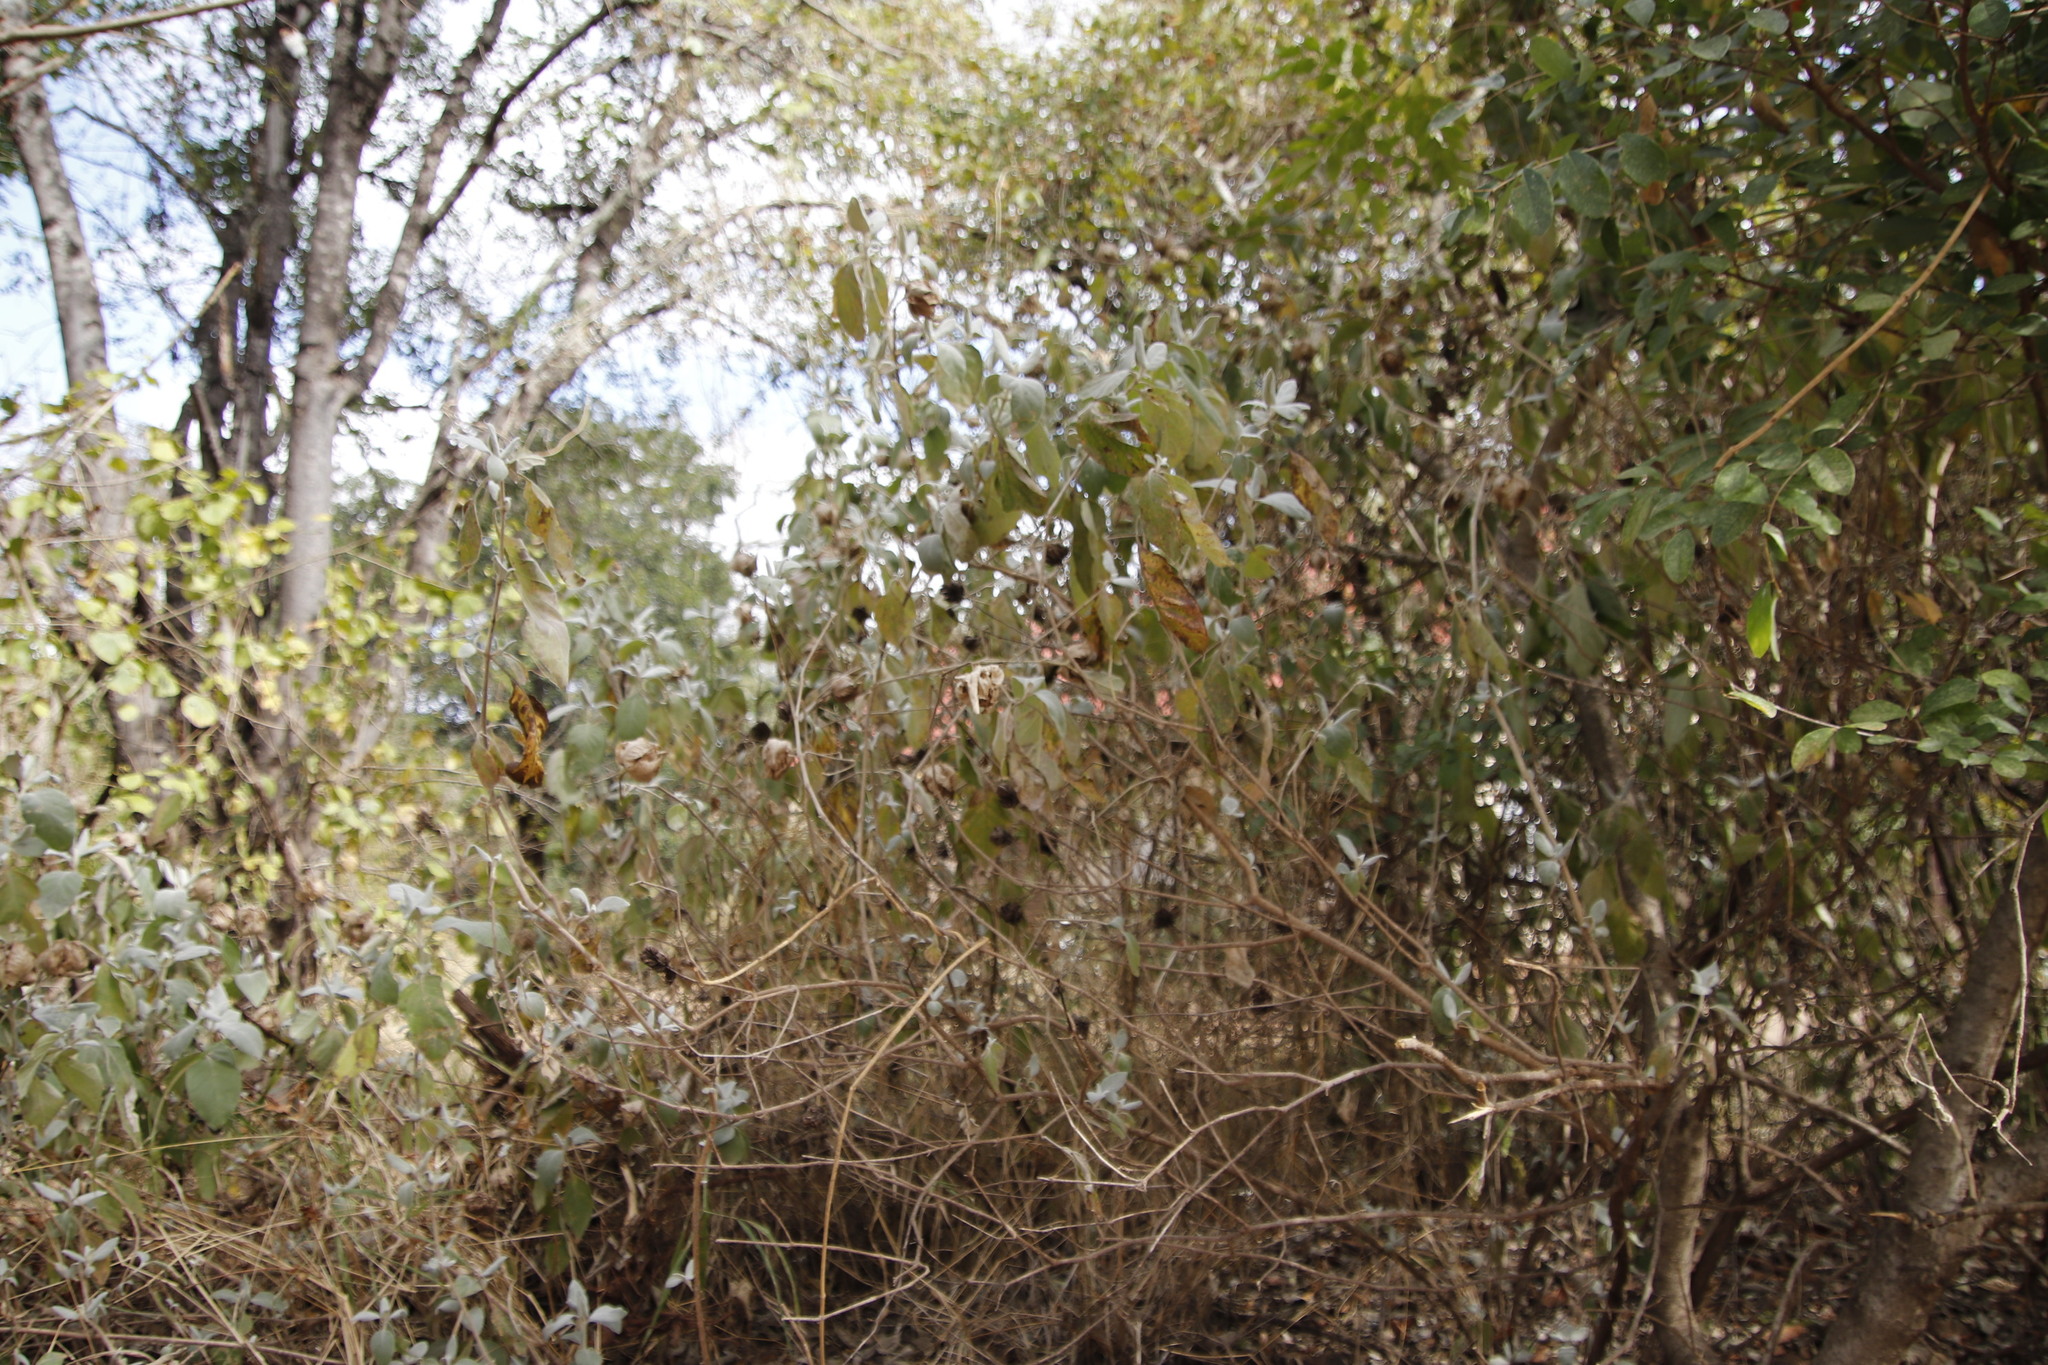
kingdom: Plantae
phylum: Tracheophyta
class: Magnoliopsida
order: Lamiales
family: Acanthaceae
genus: Barleria
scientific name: Barleria albostellata
